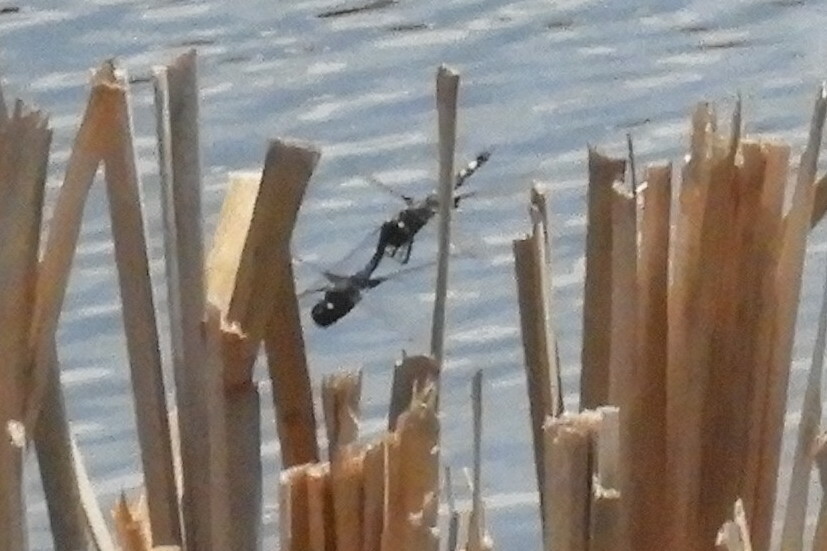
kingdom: Animalia
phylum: Arthropoda
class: Insecta
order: Odonata
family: Libellulidae
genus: Tramea
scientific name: Tramea lacerata
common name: Black saddlebags
